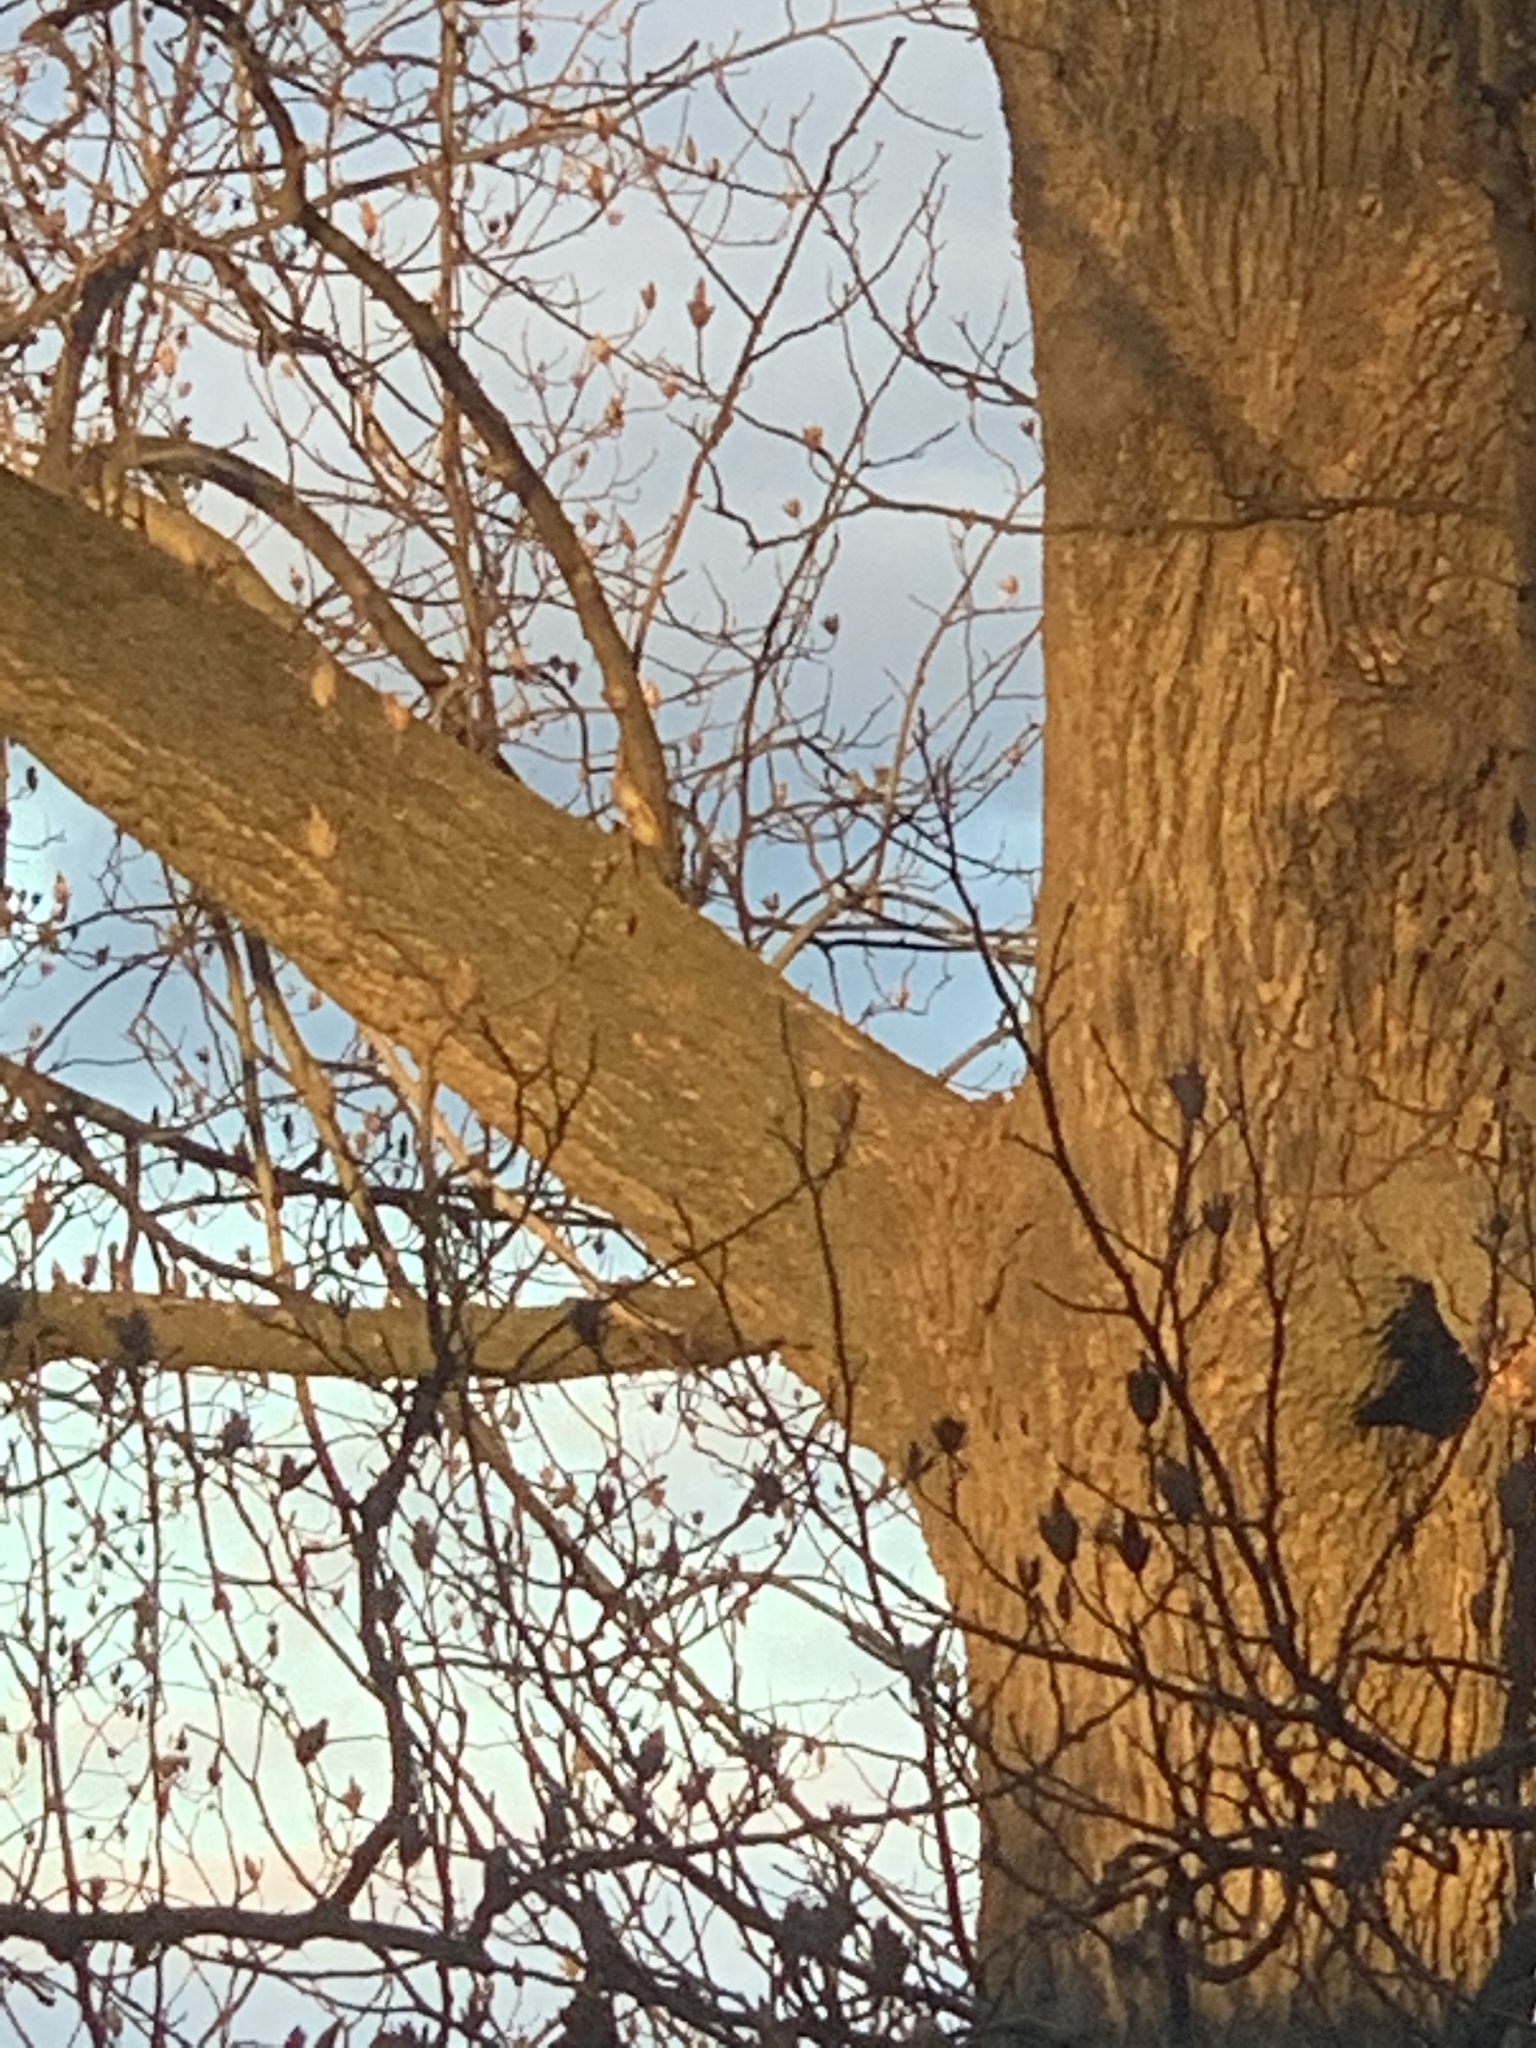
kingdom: Plantae
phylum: Tracheophyta
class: Magnoliopsida
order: Magnoliales
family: Magnoliaceae
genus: Liriodendron
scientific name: Liriodendron tulipifera
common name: Tulip tree
